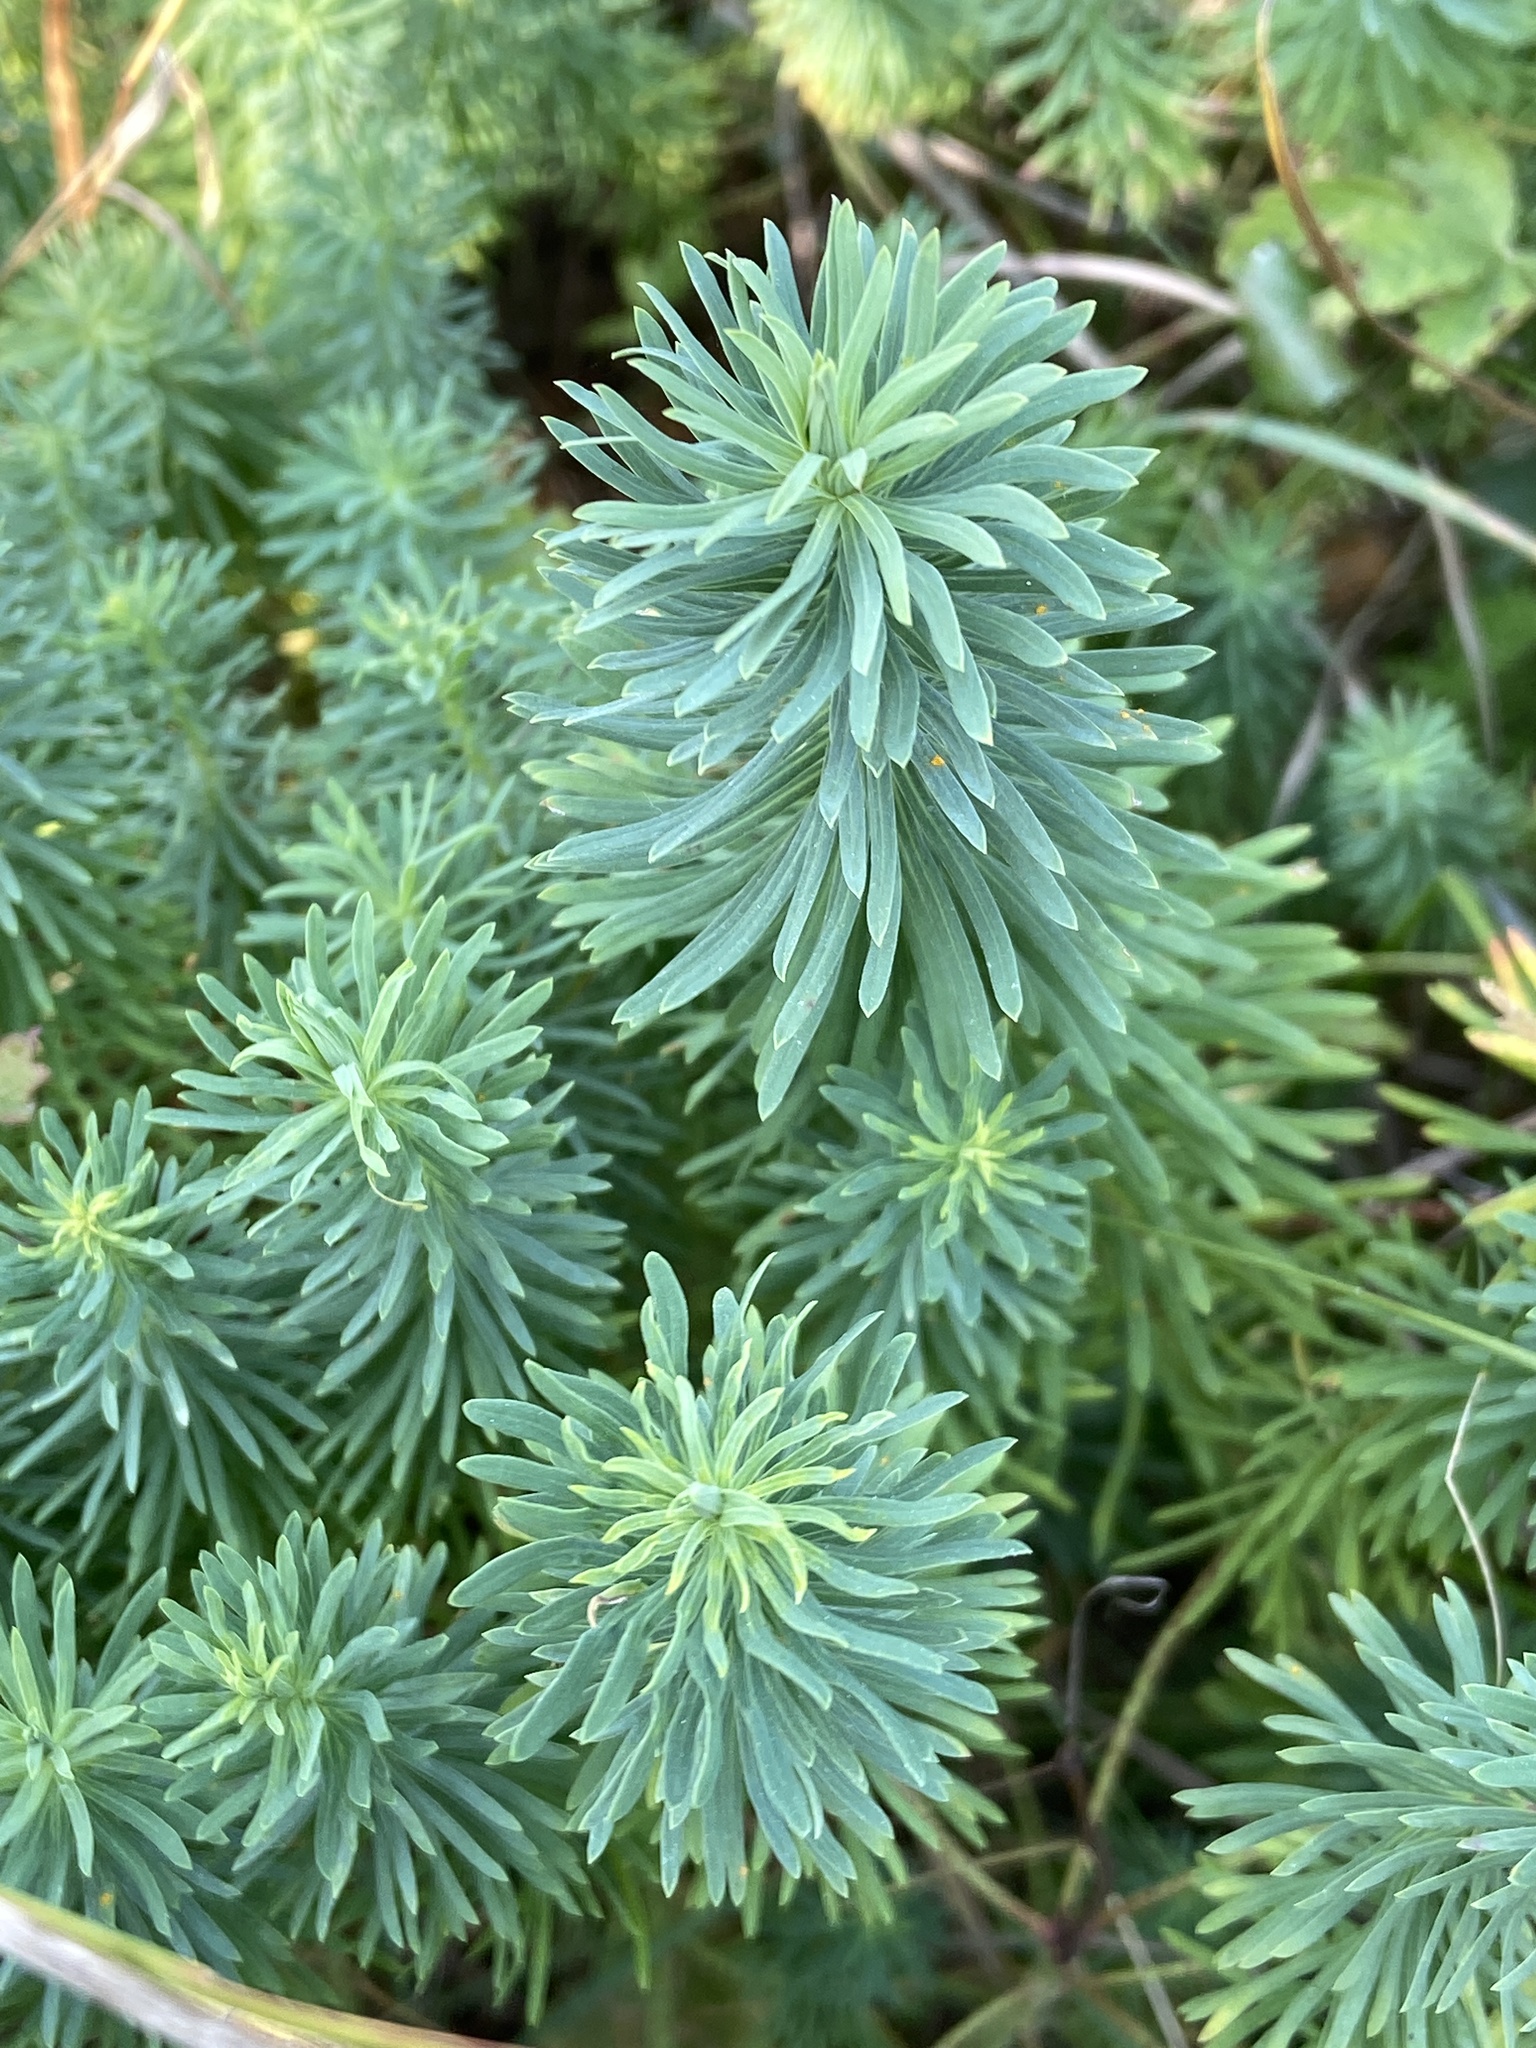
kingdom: Plantae
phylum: Tracheophyta
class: Magnoliopsida
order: Malpighiales
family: Euphorbiaceae
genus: Euphorbia
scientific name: Euphorbia cyparissias
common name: Cypress spurge
